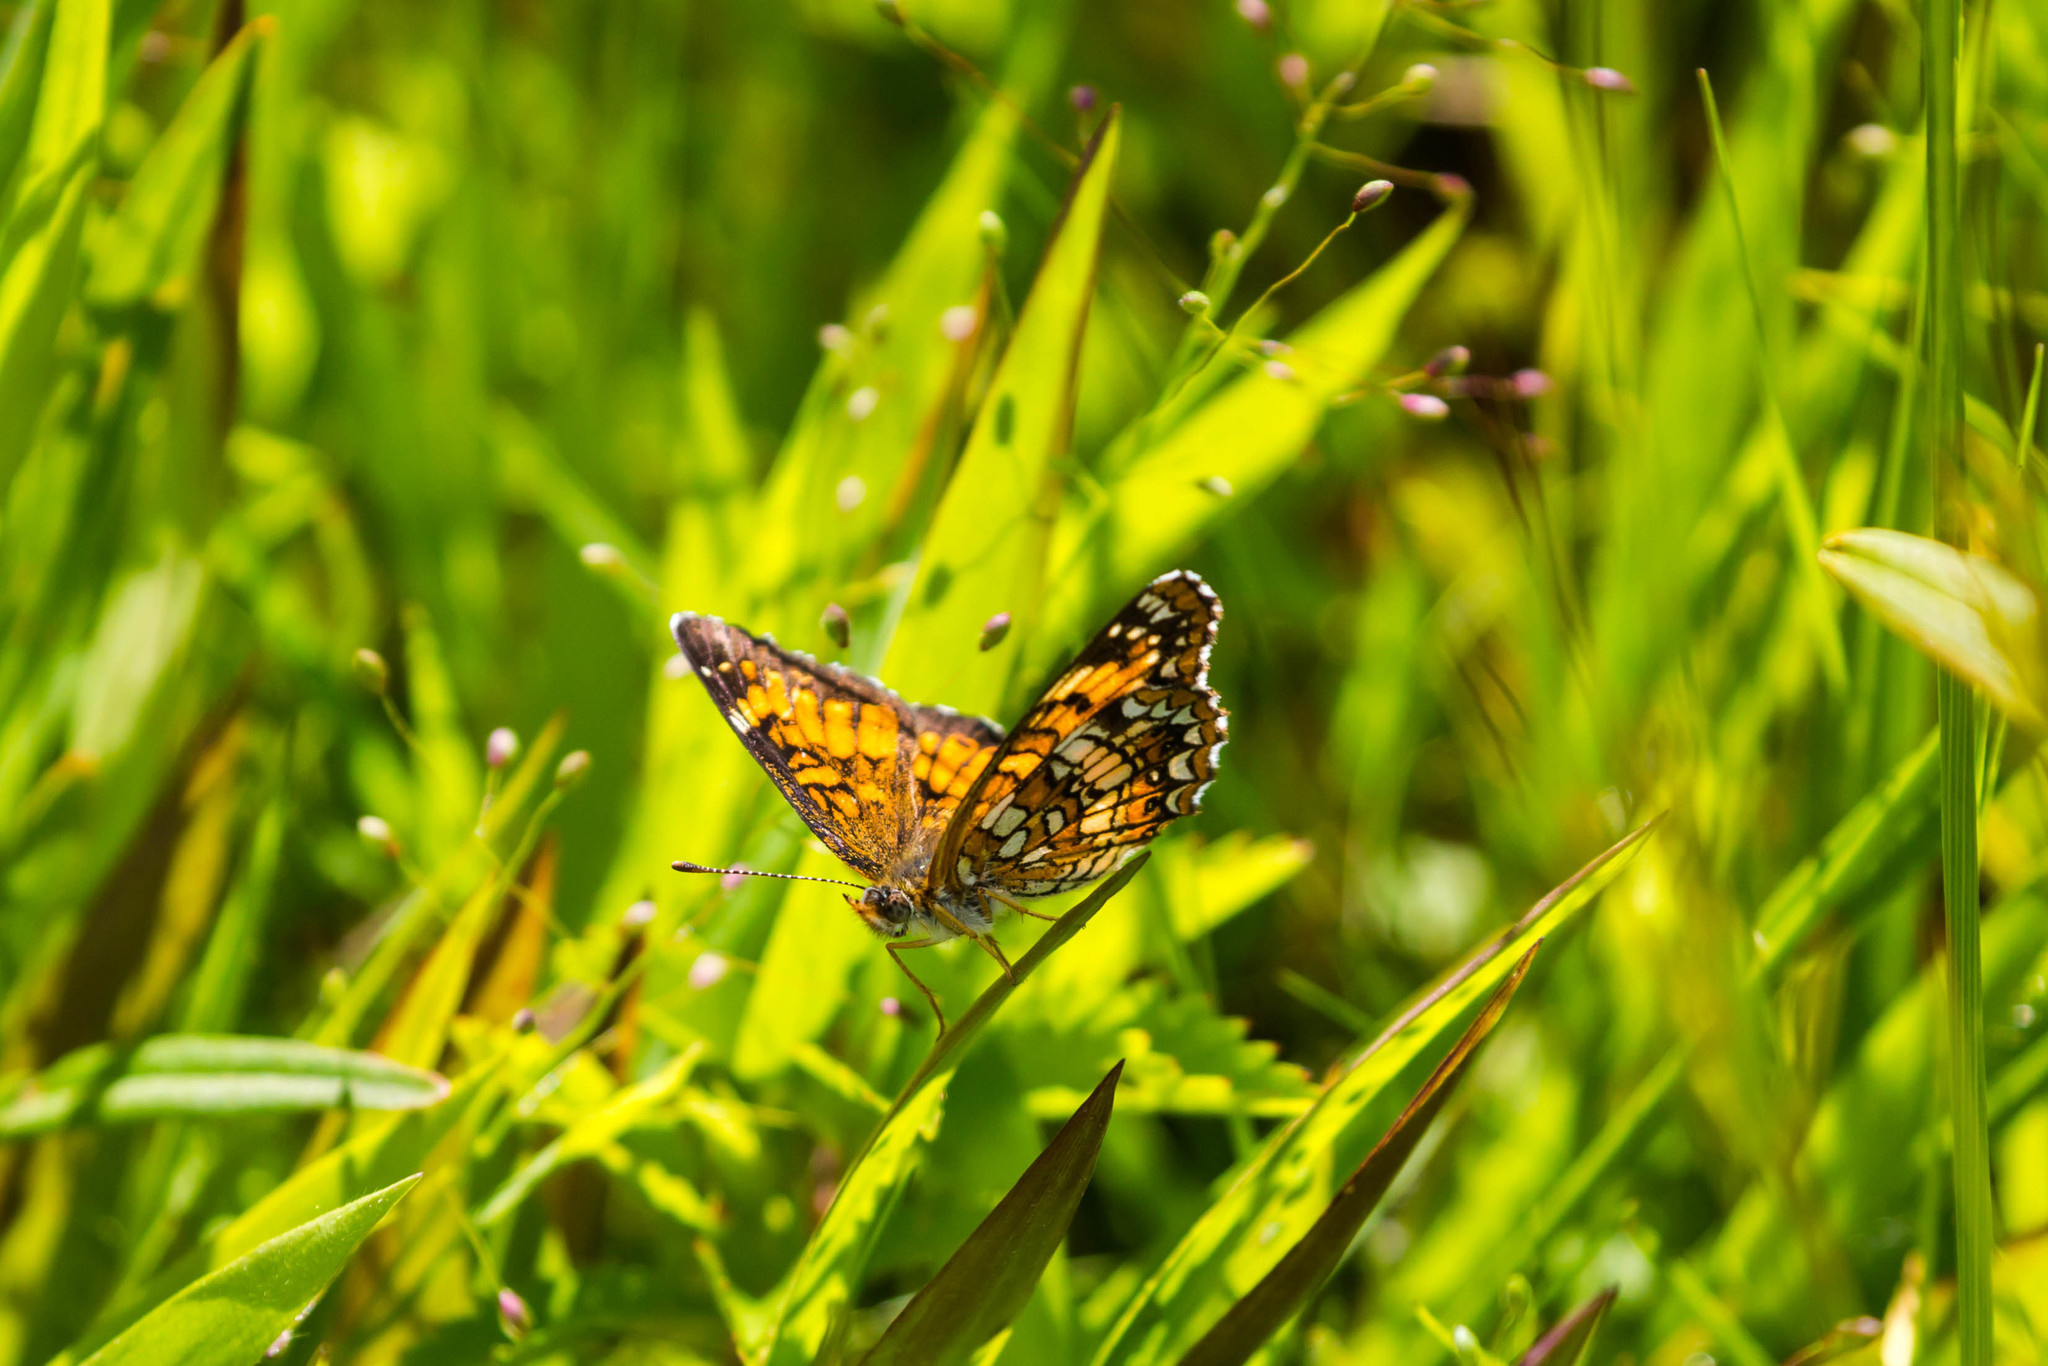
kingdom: Animalia
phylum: Arthropoda
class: Insecta
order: Lepidoptera
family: Nymphalidae
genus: Chlosyne
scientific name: Chlosyne harrisii
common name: Harris's checkerspot
